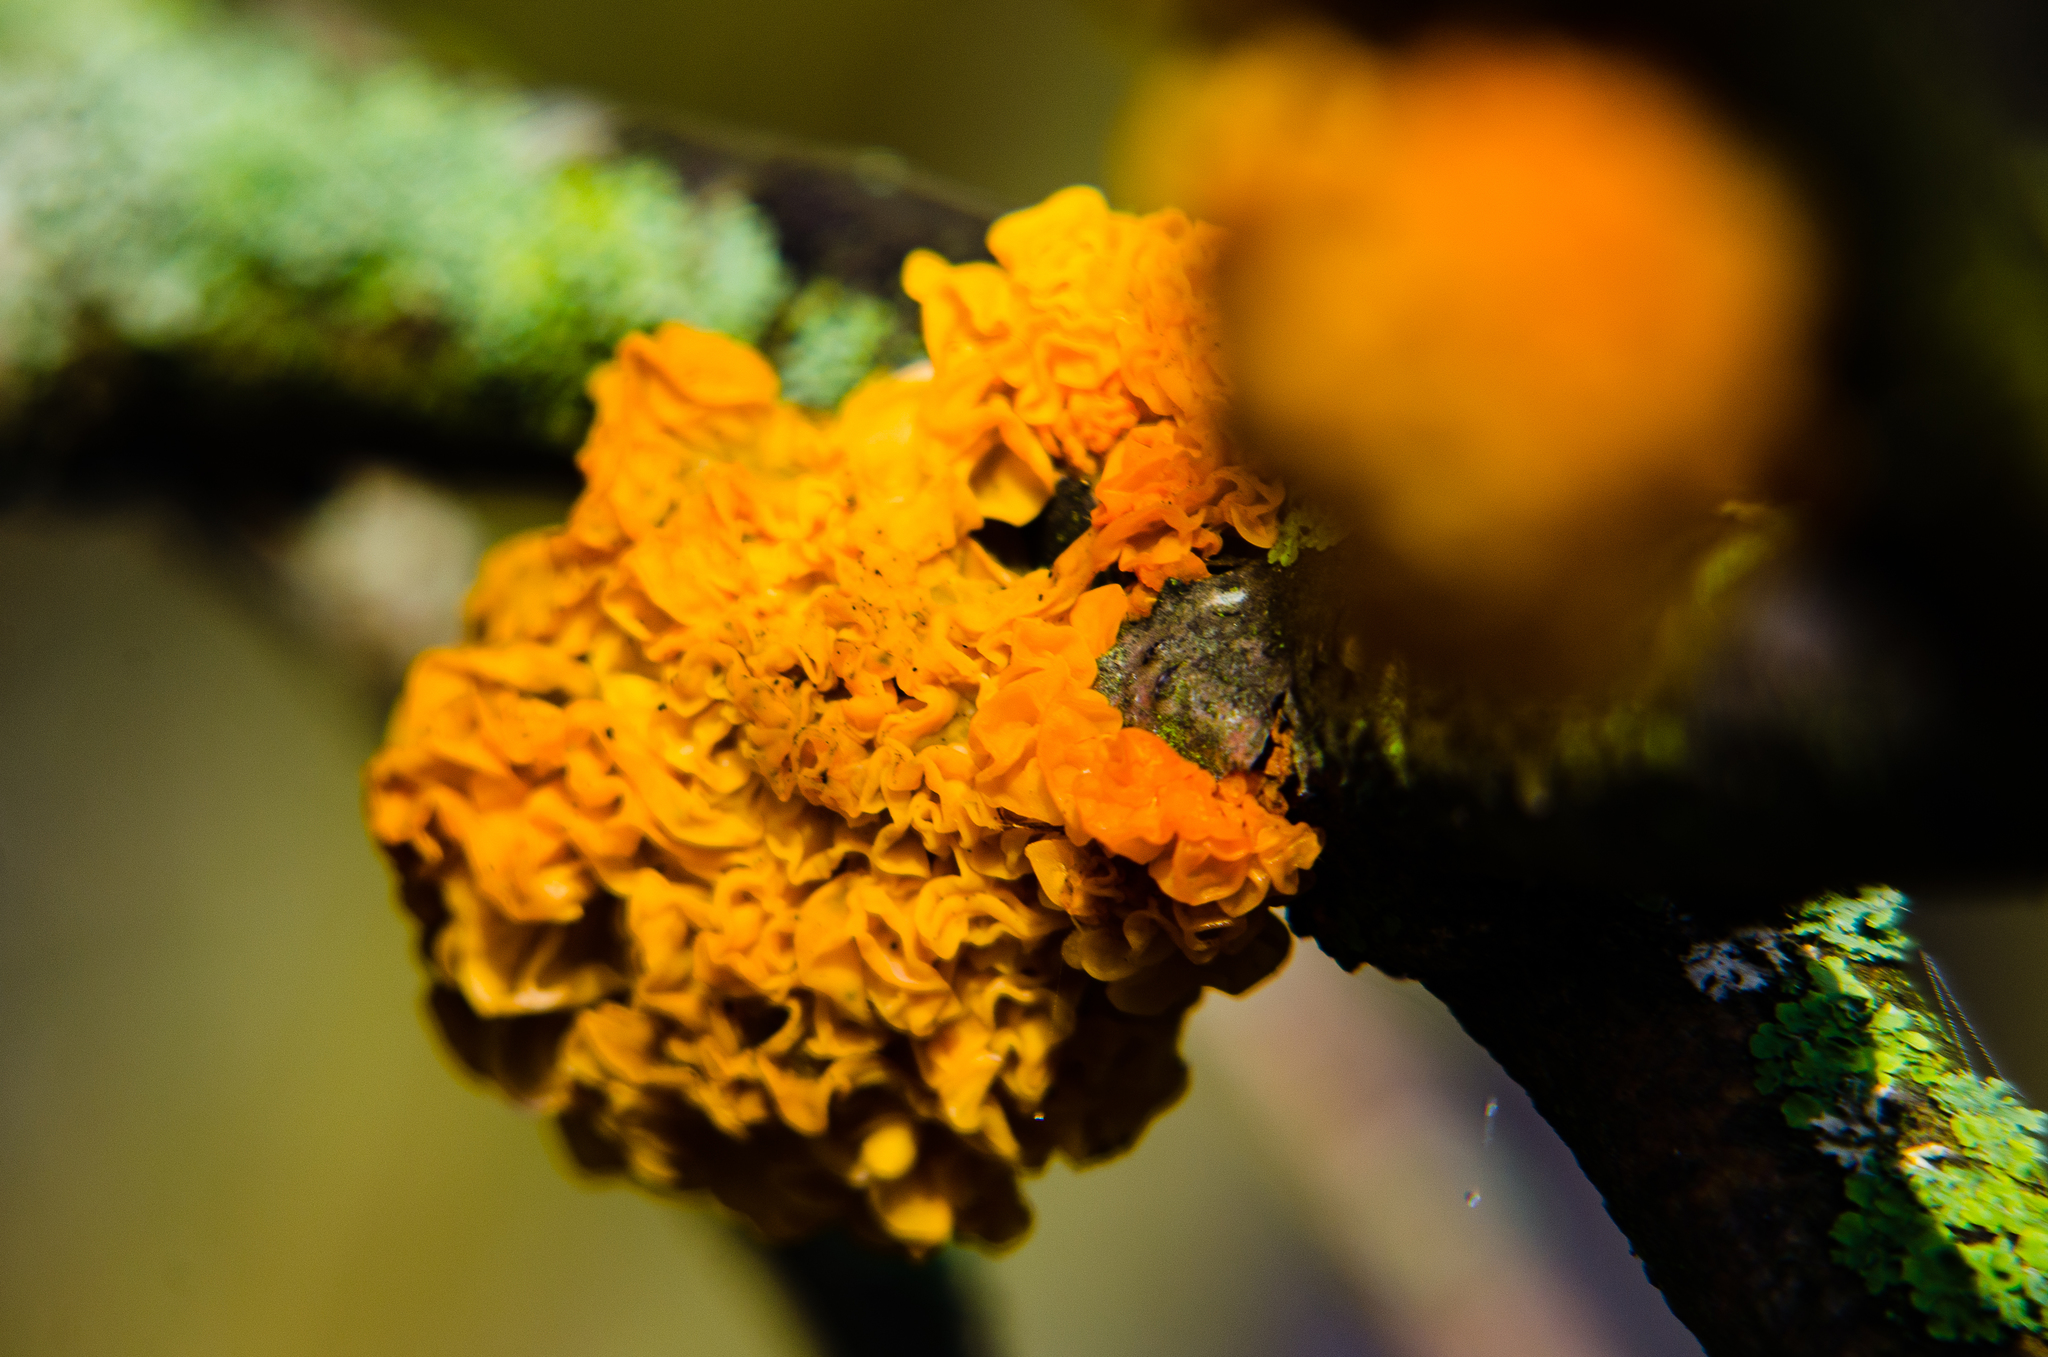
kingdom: Fungi
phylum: Basidiomycota
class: Tremellomycetes
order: Tremellales
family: Tremellaceae
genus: Tremella
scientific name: Tremella mesenterica
